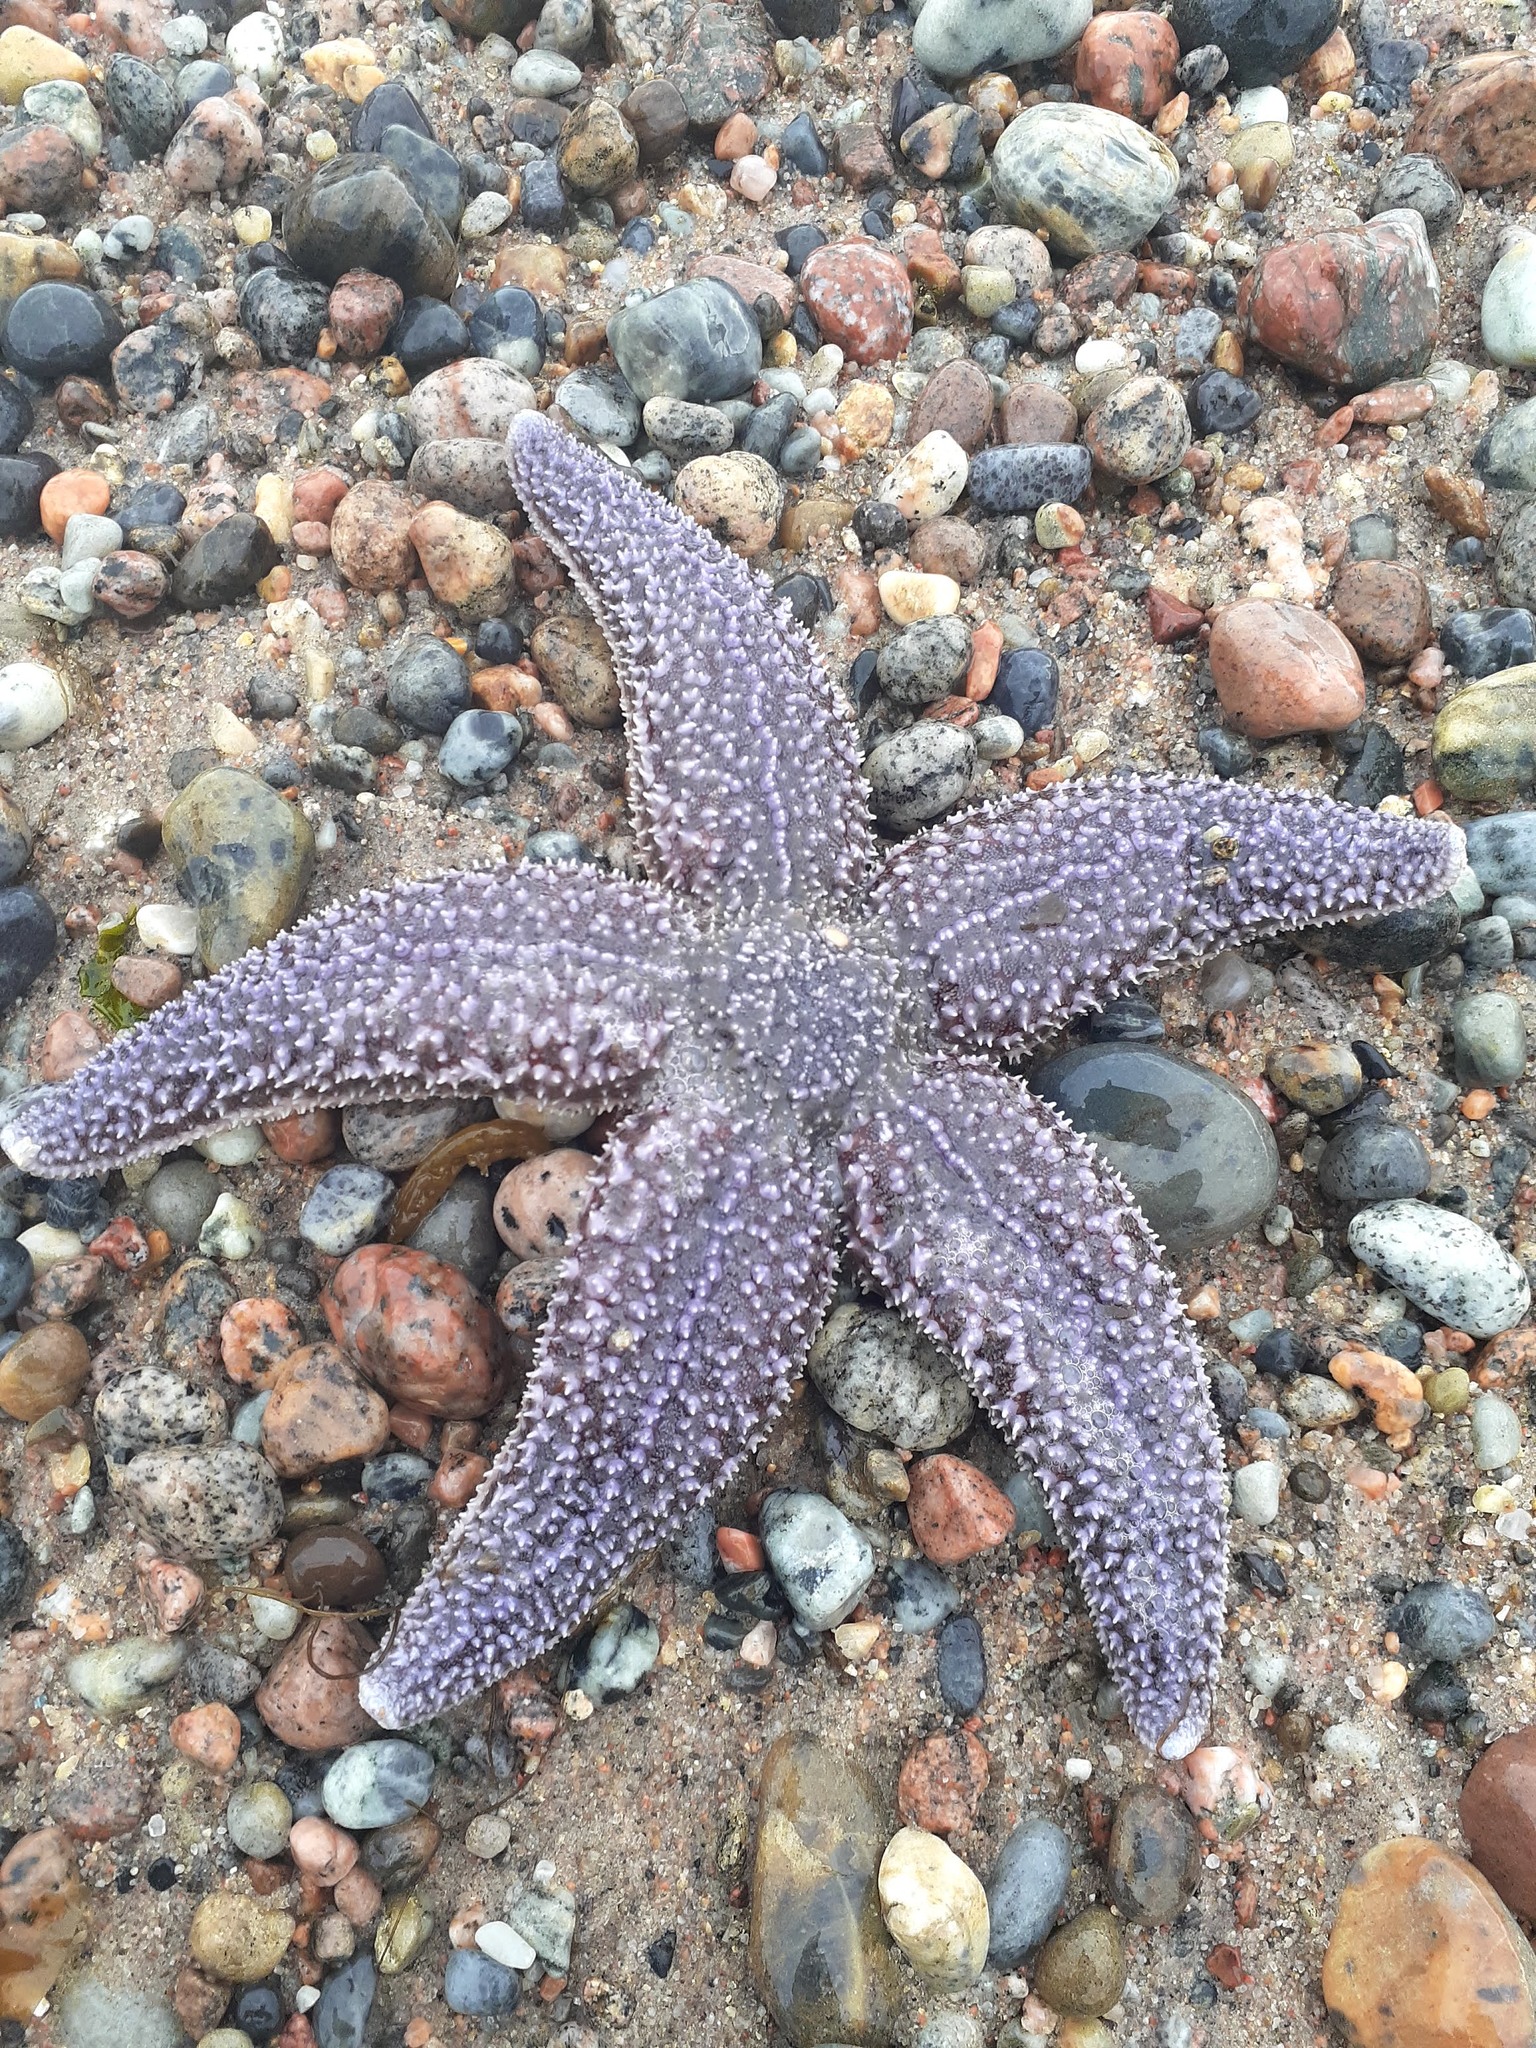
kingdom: Animalia
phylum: Echinodermata
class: Asteroidea
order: Forcipulatida
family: Asteriidae
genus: Asterias
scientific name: Asterias rubens
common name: Common starfish
